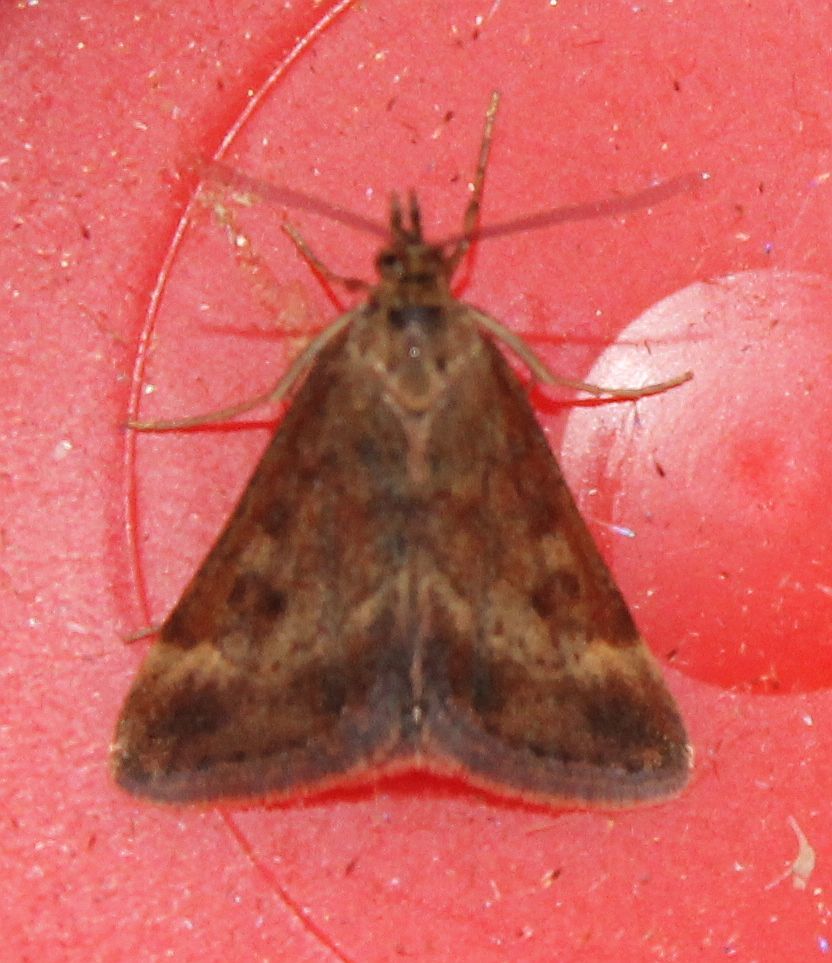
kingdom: Animalia
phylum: Arthropoda
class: Insecta
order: Lepidoptera
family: Crambidae
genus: Pyrausta
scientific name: Pyrausta despicata
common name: Straw-barred pearl
